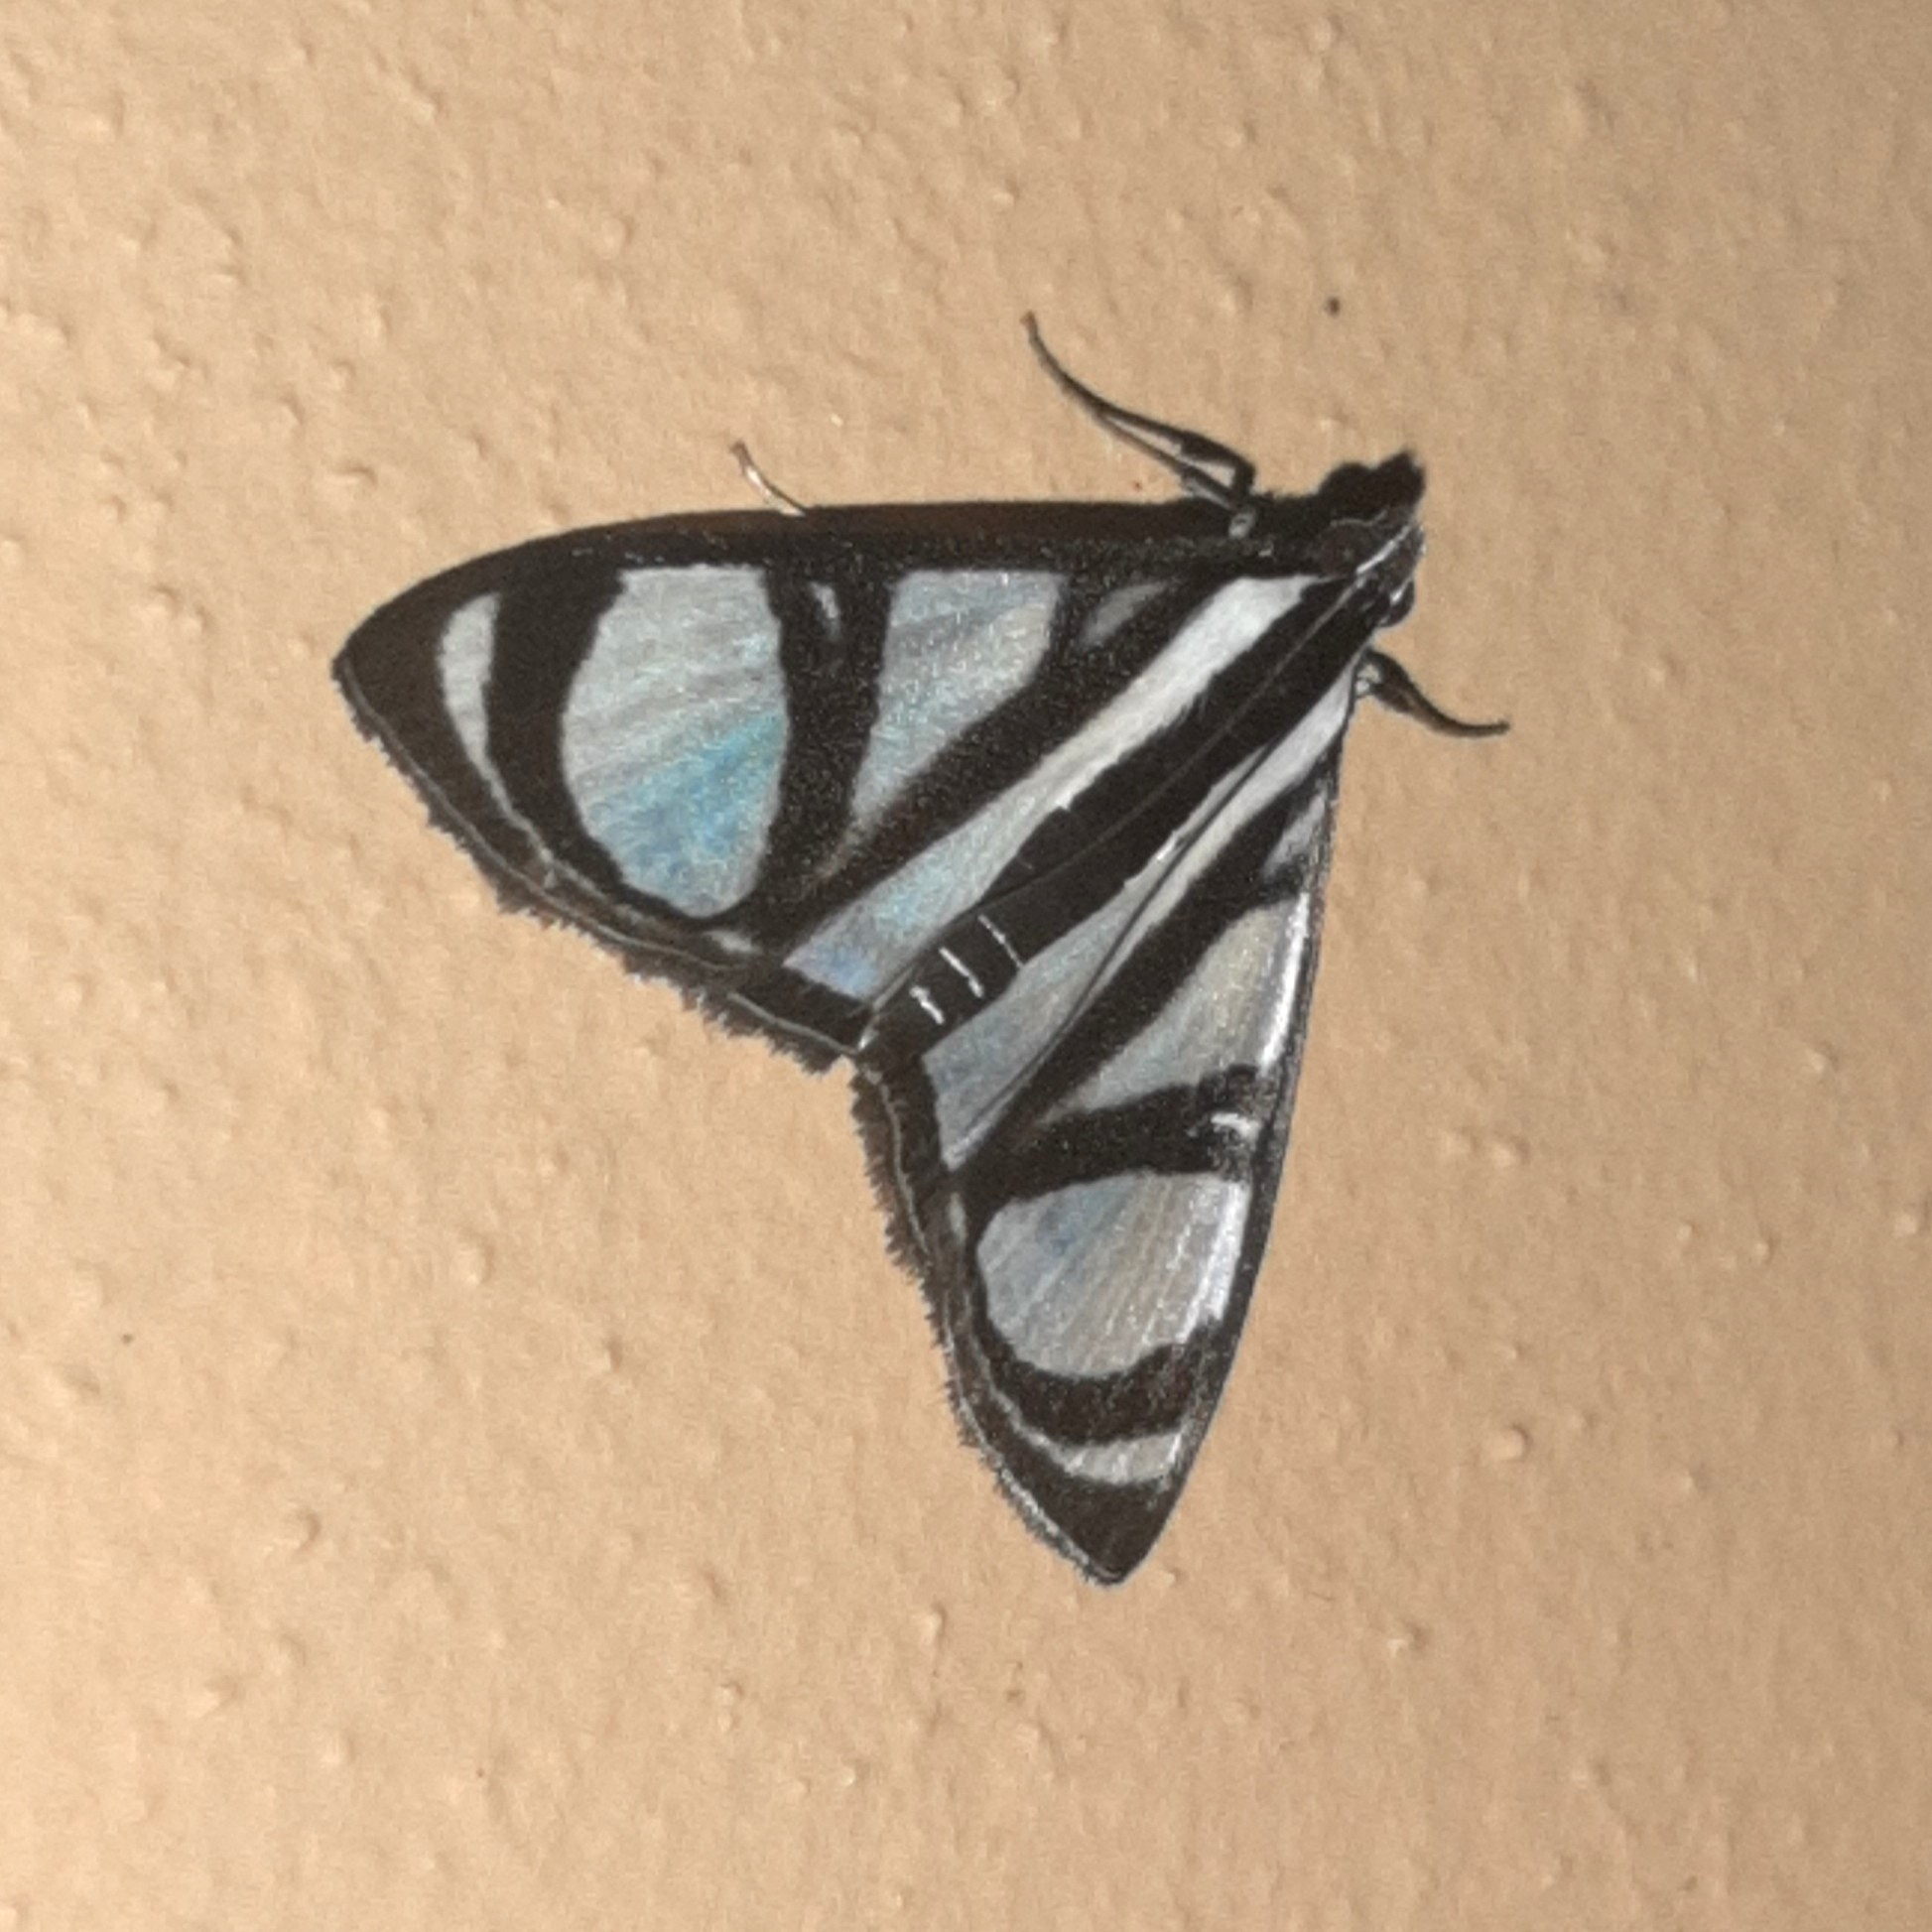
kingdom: Animalia
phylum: Arthropoda
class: Insecta
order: Lepidoptera
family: Crambidae
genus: Glyphodes
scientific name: Glyphodes confinis
